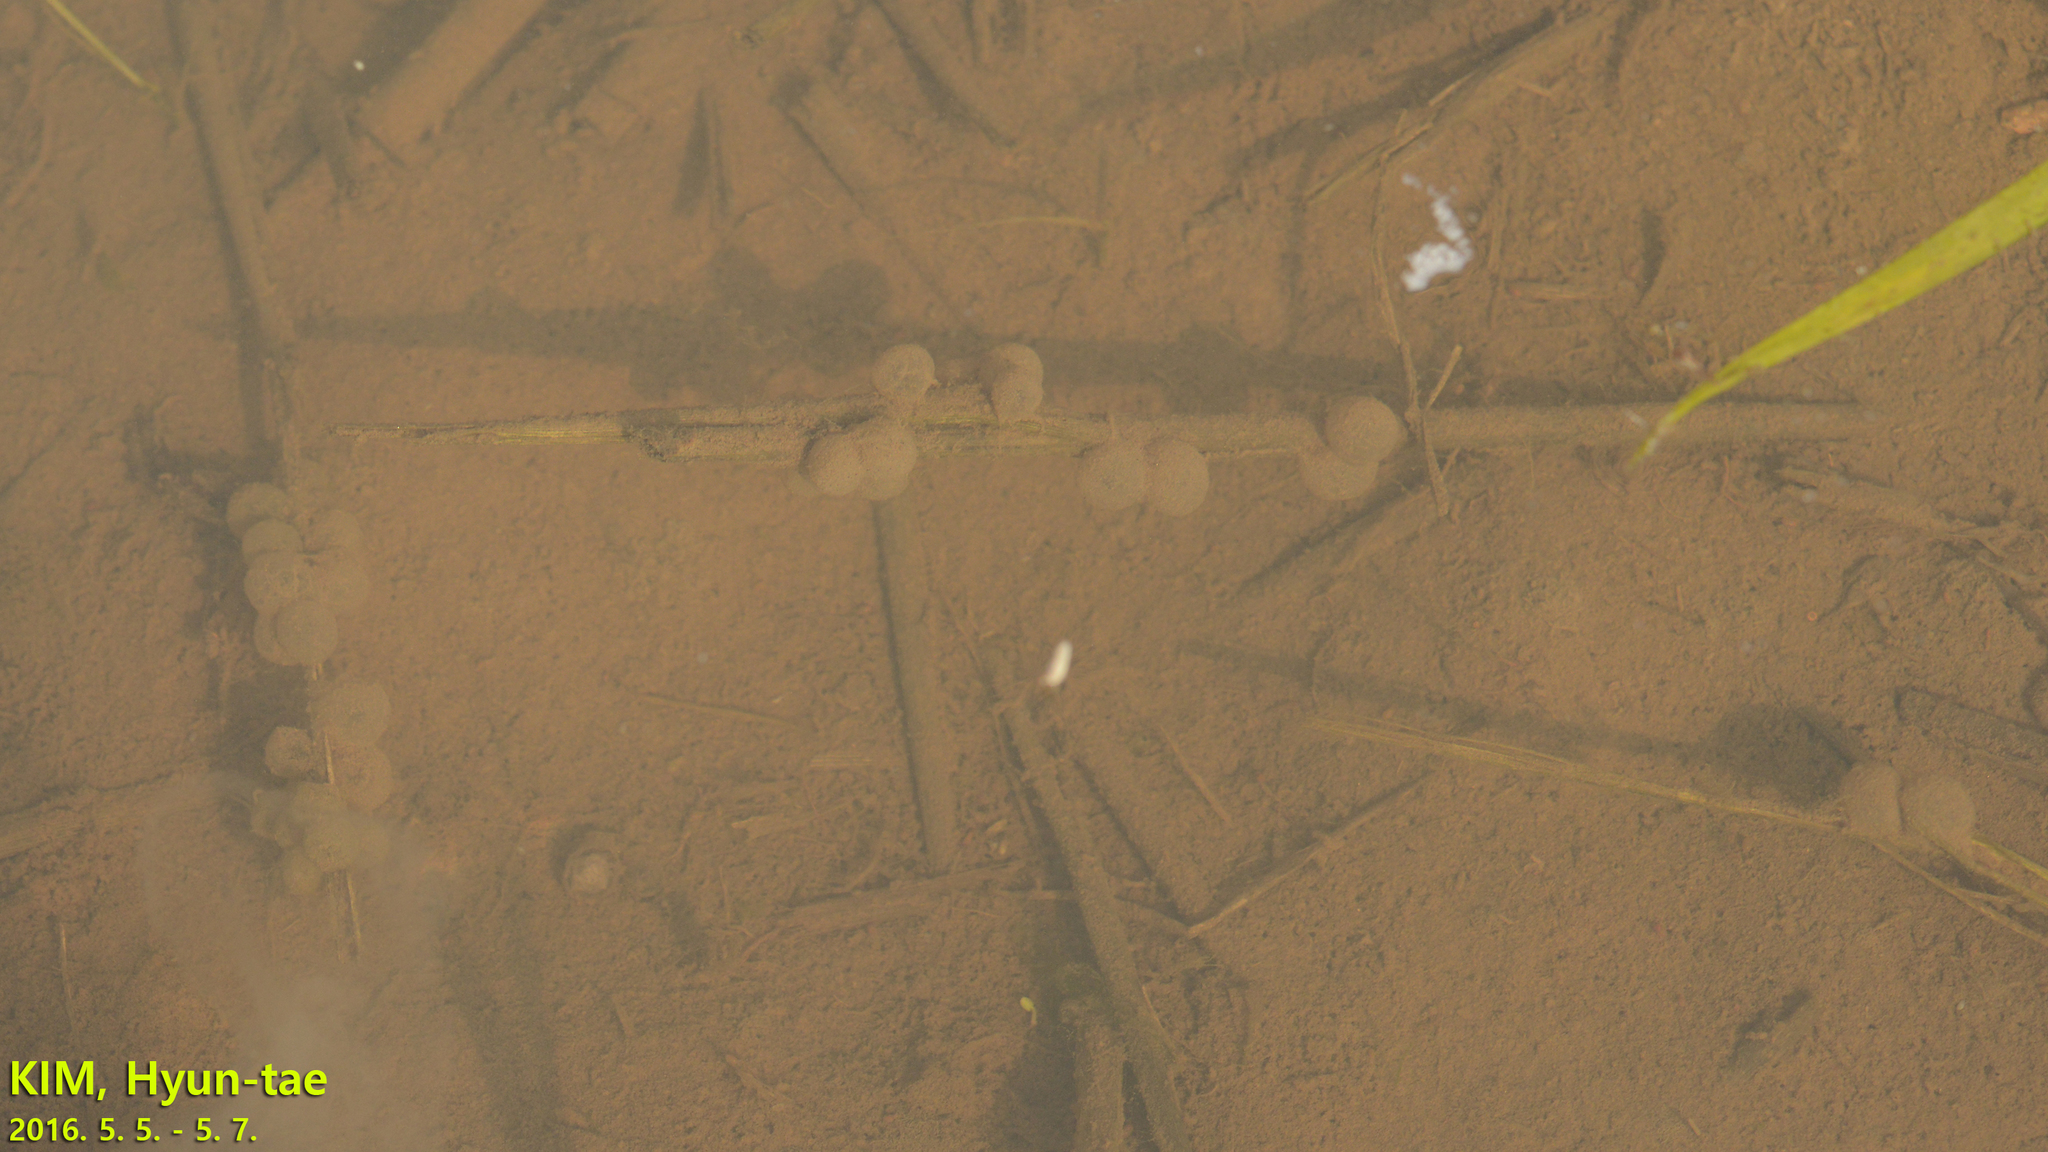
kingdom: Animalia
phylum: Chordata
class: Amphibia
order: Anura
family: Bombinatoridae
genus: Bombina
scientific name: Bombina orientalis
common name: Oriental firebelly toad
